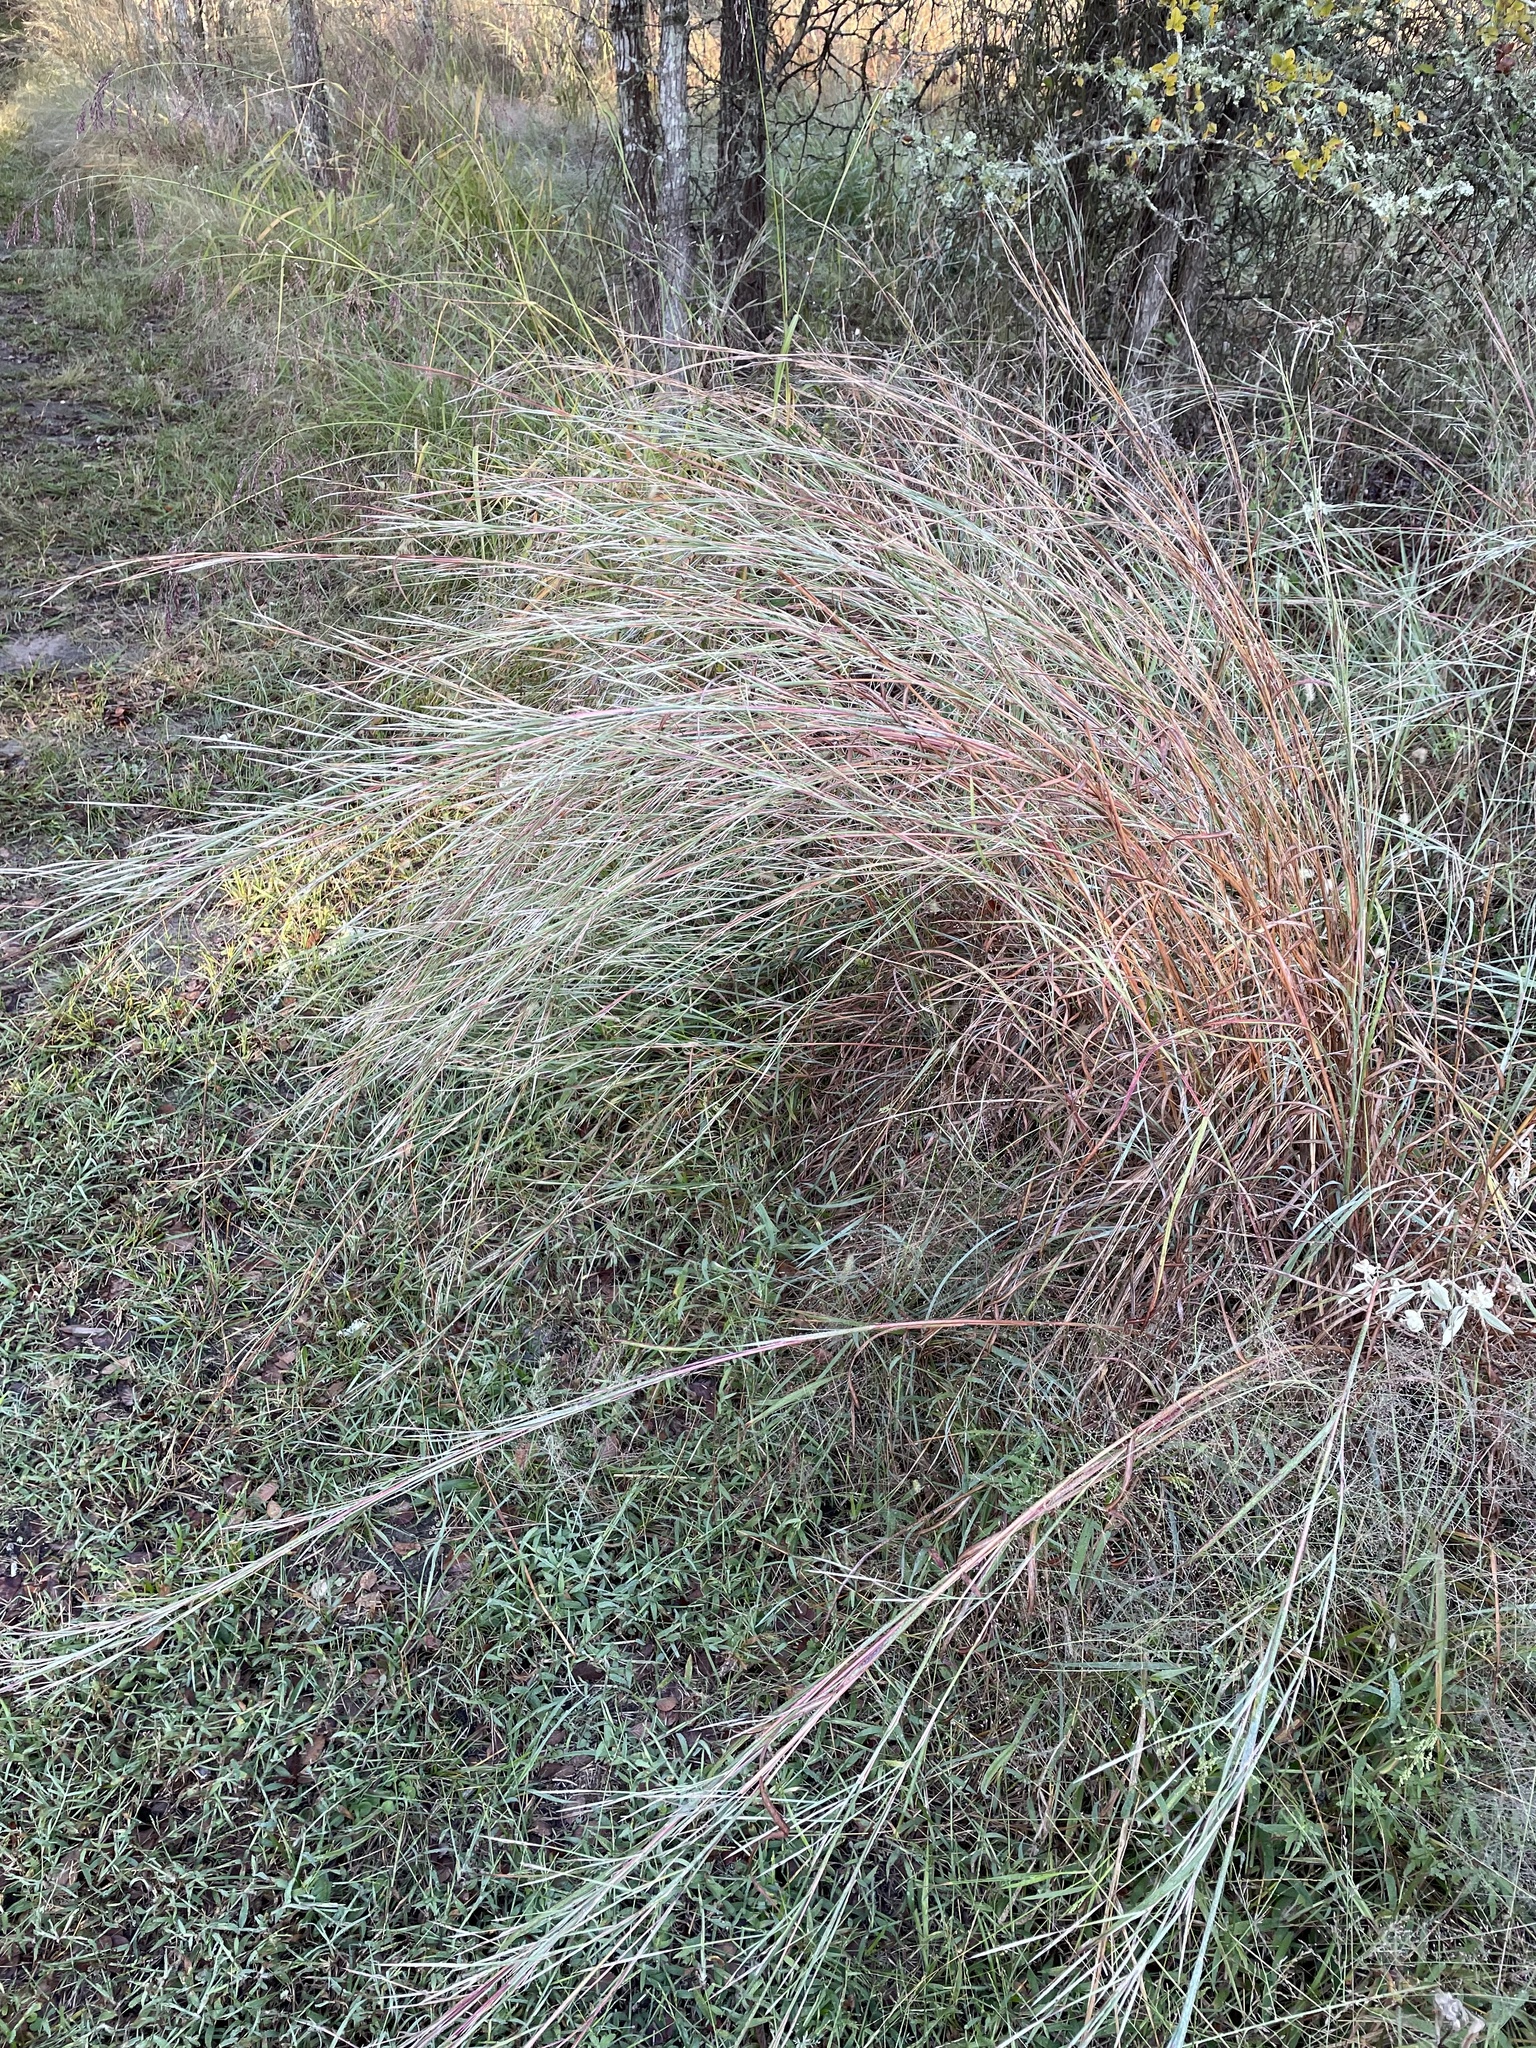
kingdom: Plantae
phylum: Tracheophyta
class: Liliopsida
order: Poales
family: Poaceae
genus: Schizachyrium
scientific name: Schizachyrium scoparium
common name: Little bluestem
